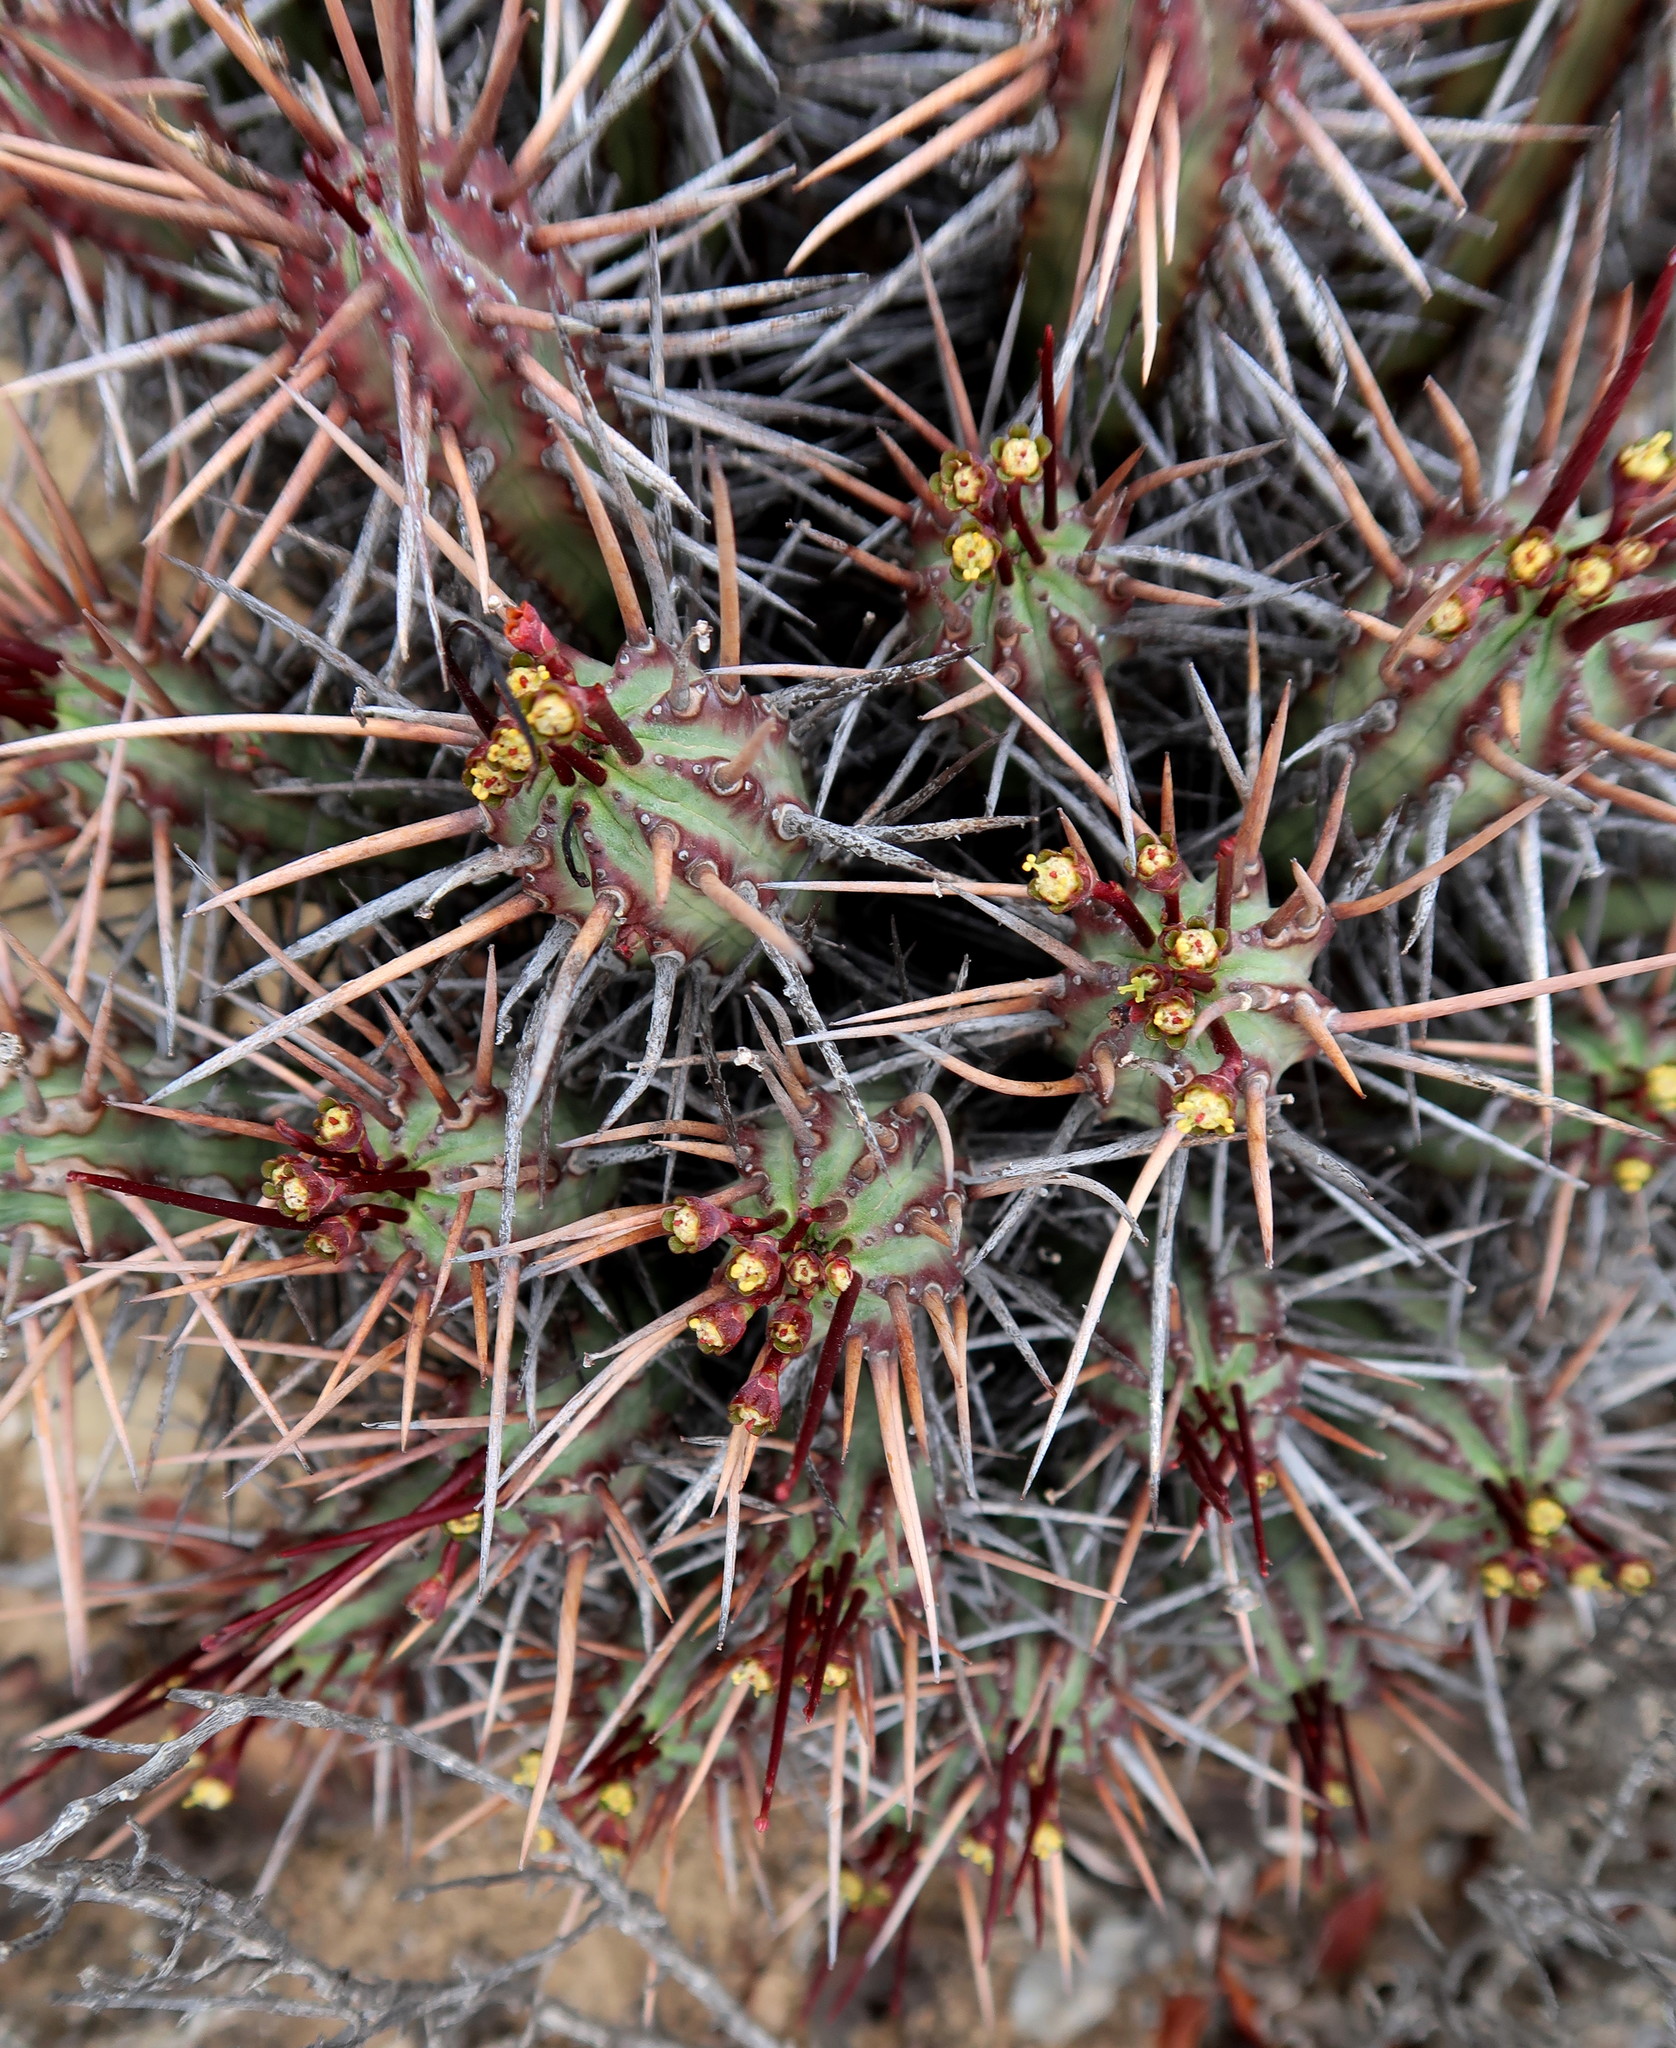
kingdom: Plantae
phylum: Tracheophyta
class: Magnoliopsida
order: Malpighiales
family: Euphorbiaceae
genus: Euphorbia
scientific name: Euphorbia heptagona
